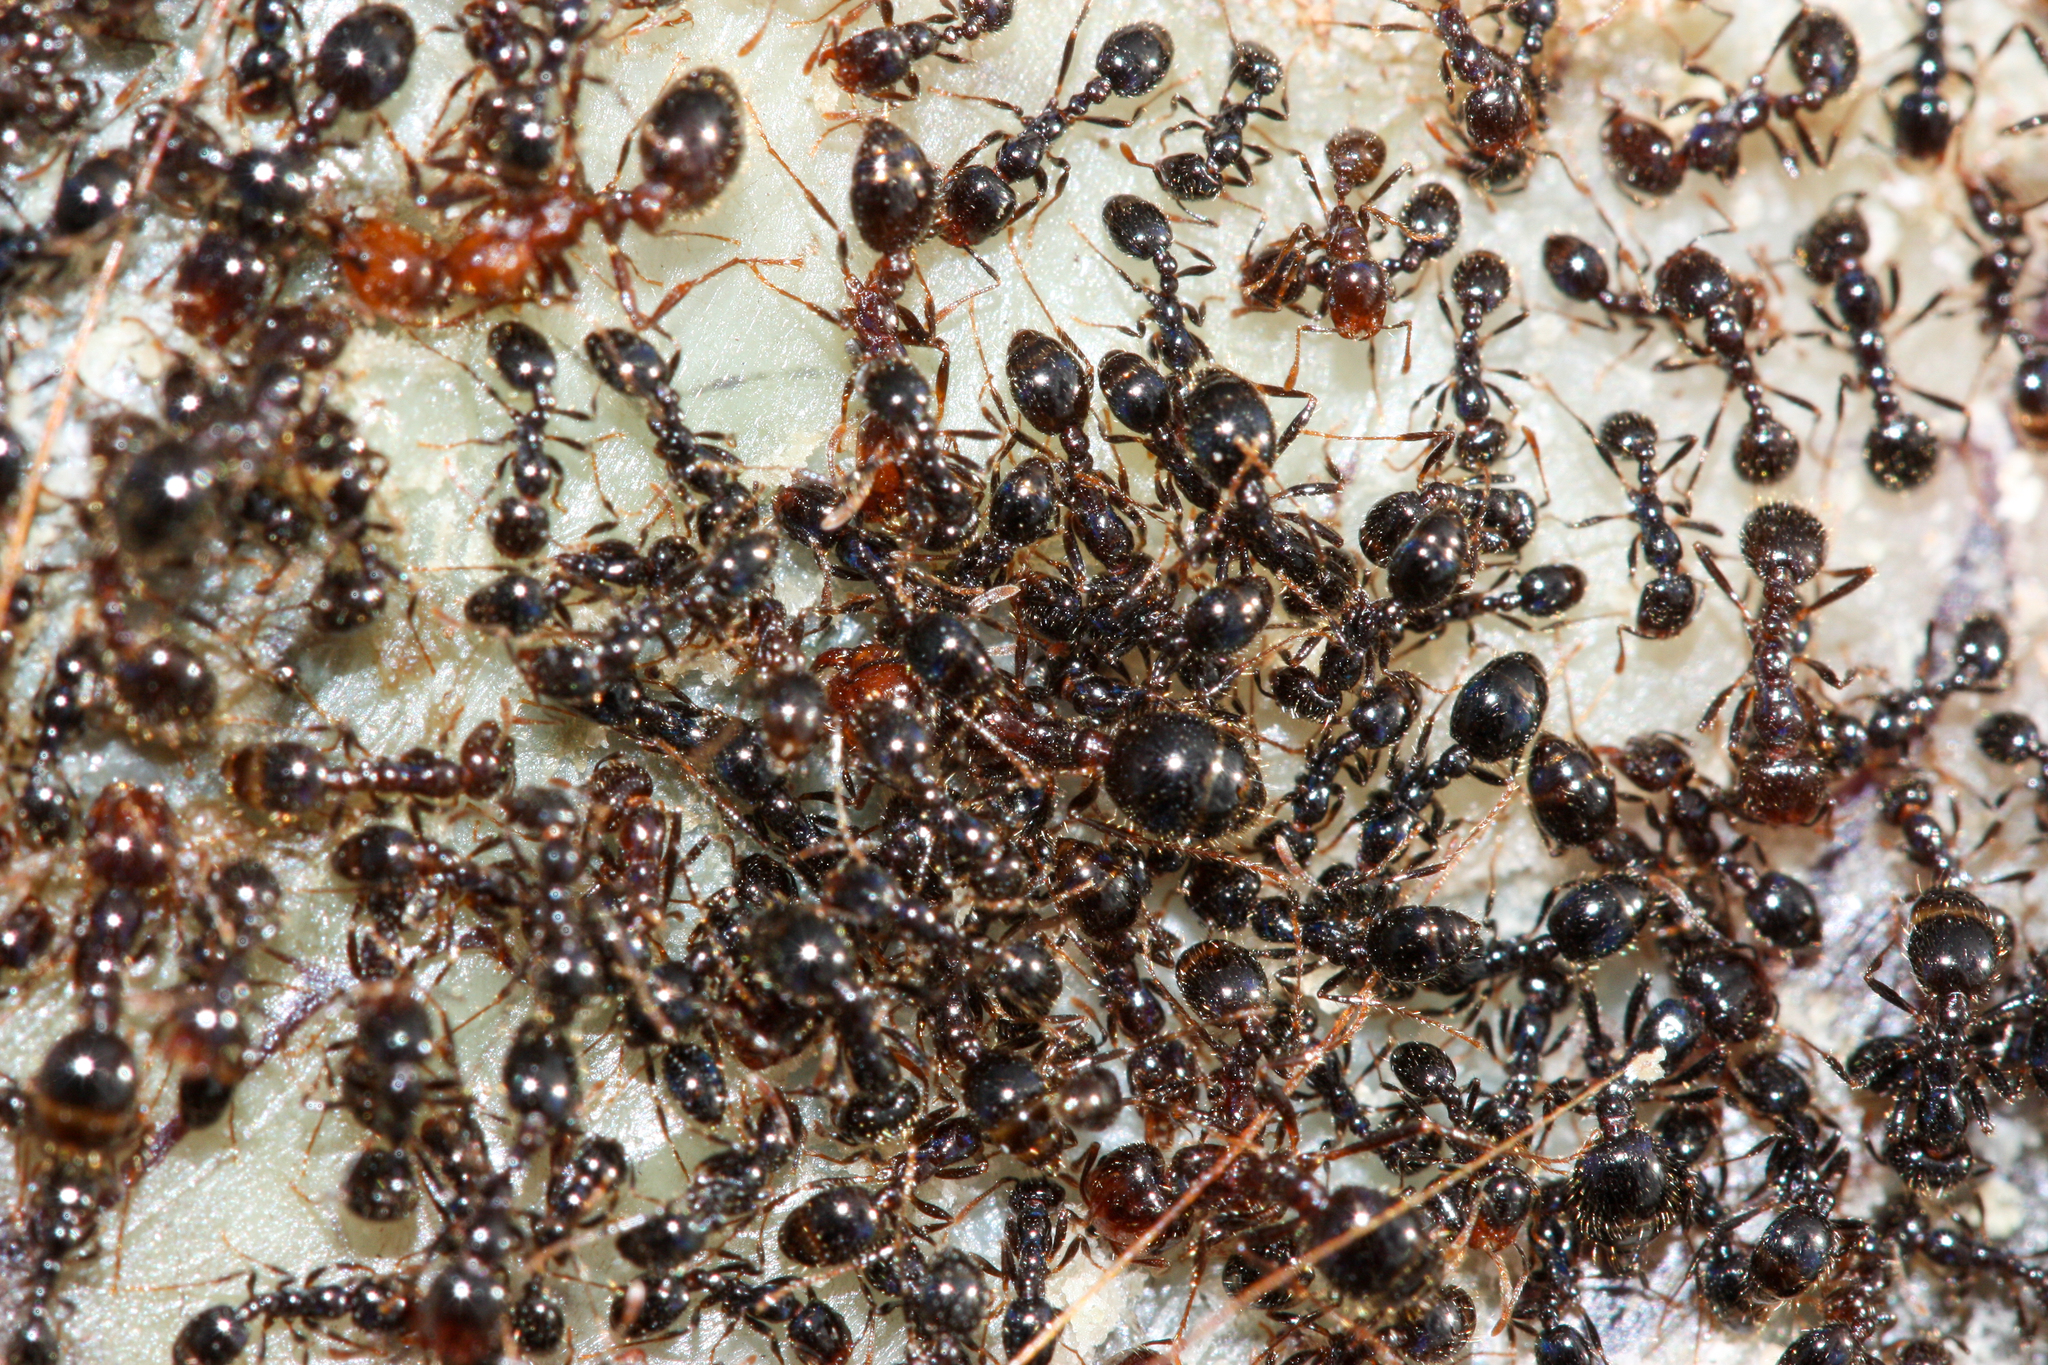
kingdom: Animalia
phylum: Arthropoda
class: Insecta
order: Hymenoptera
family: Formicidae
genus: Solenopsis
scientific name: Solenopsis xyloni
